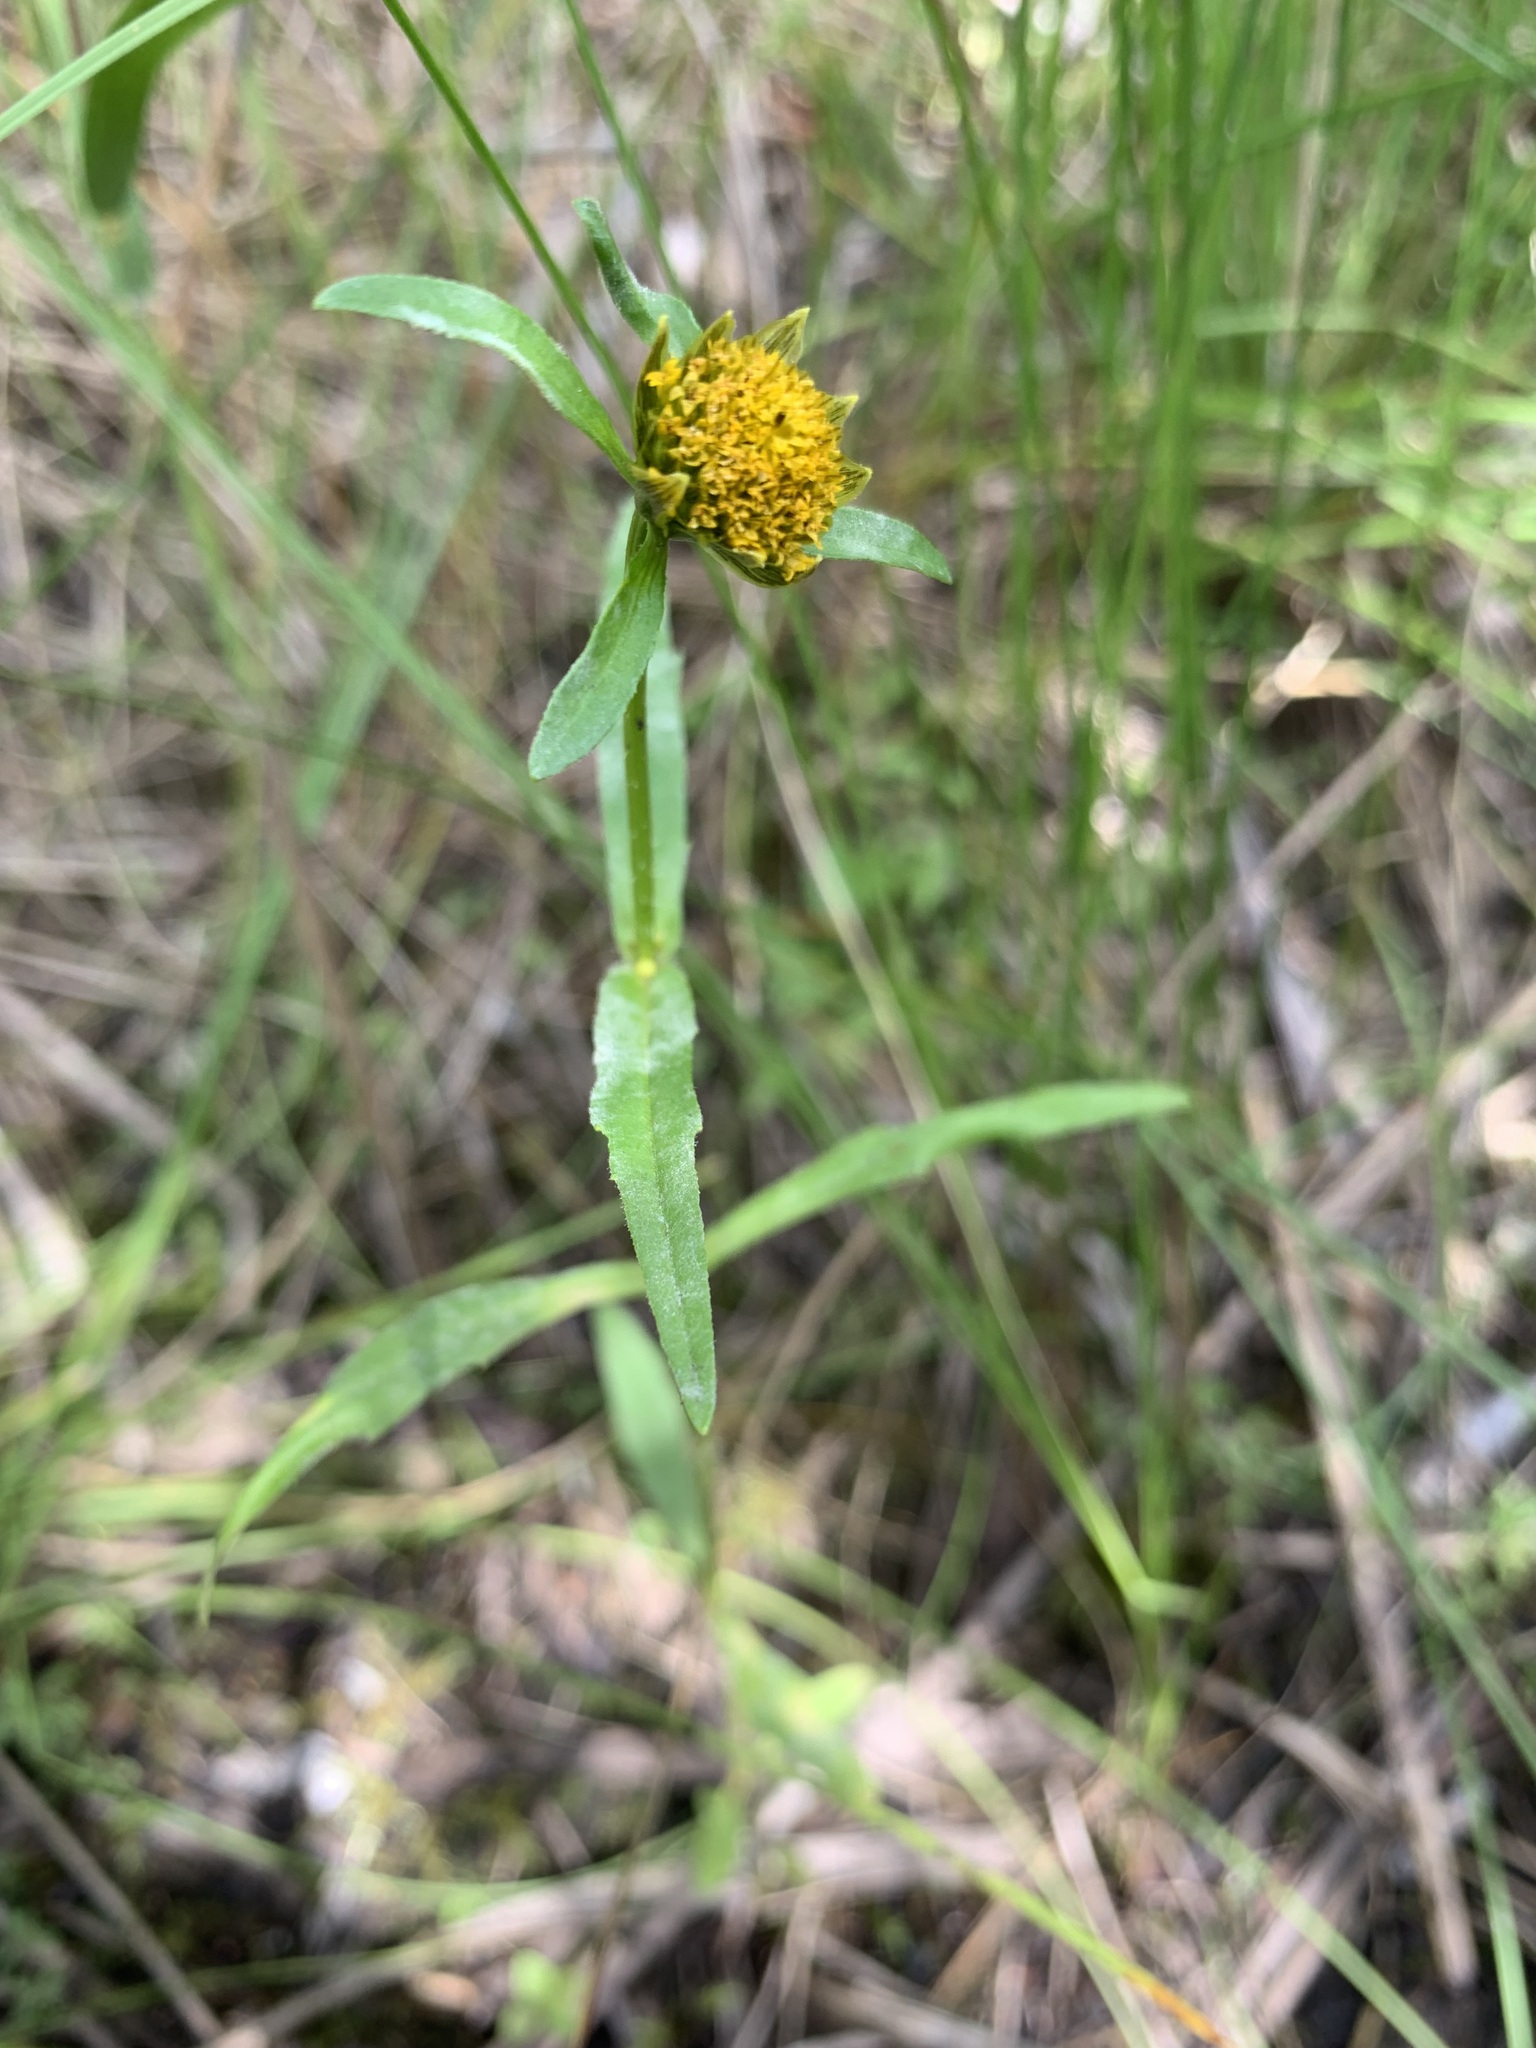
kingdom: Plantae
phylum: Tracheophyta
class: Magnoliopsida
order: Asterales
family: Asteraceae
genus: Bidens
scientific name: Bidens cernua
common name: Nodding bur-marigold
